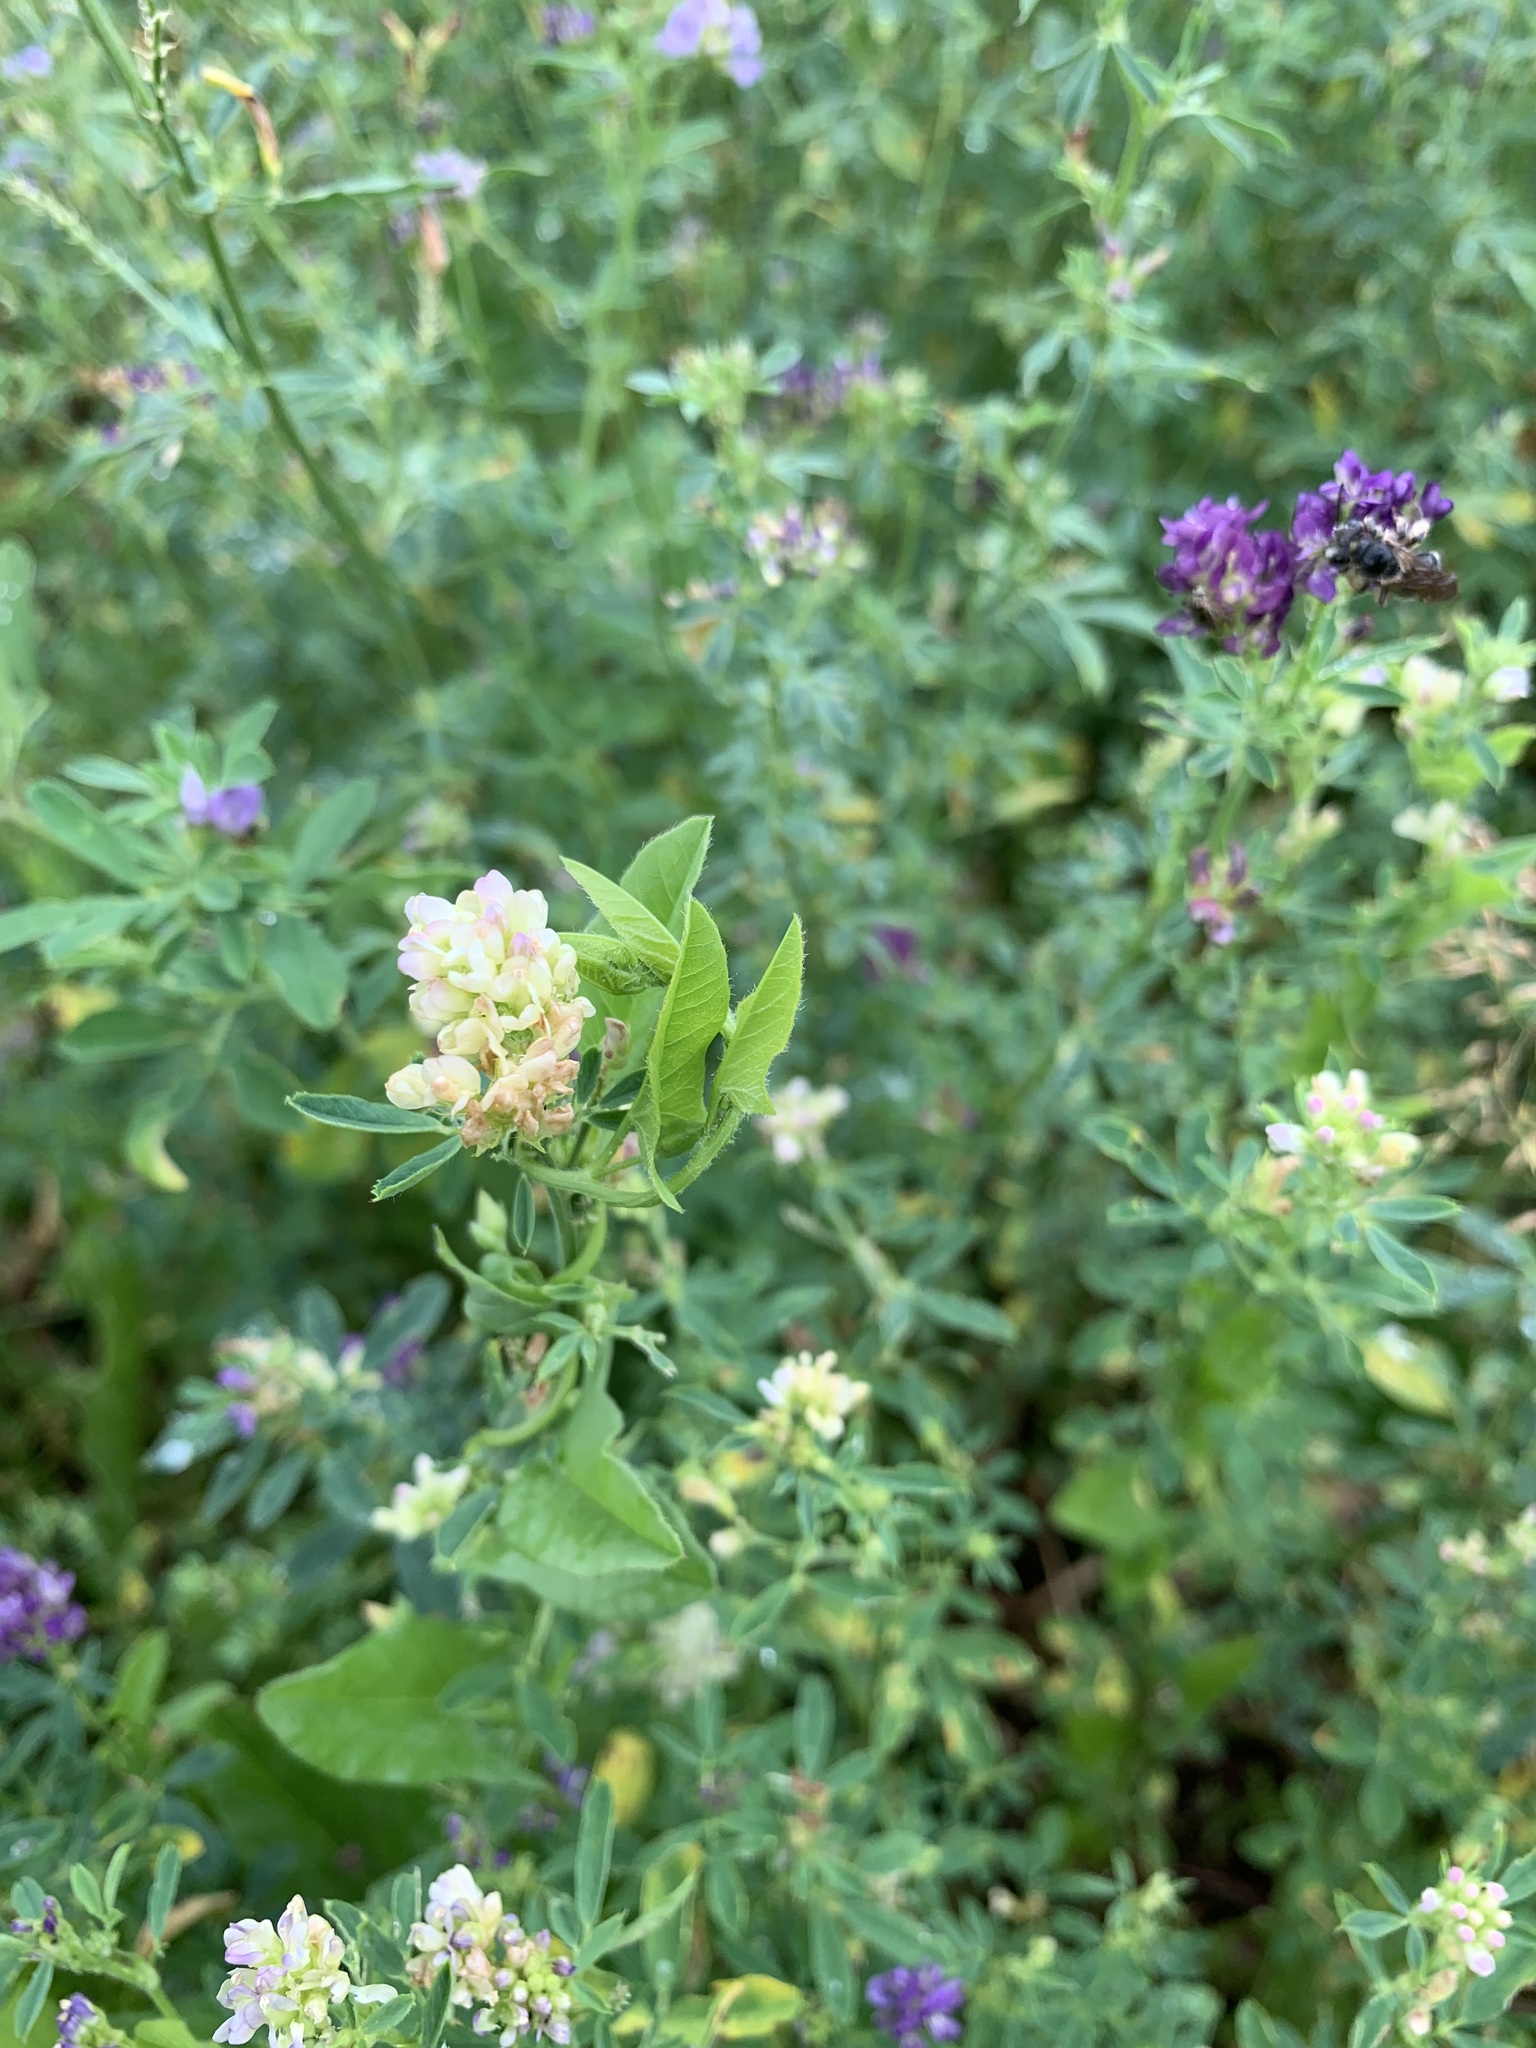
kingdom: Plantae
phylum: Tracheophyta
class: Magnoliopsida
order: Fabales
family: Fabaceae
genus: Medicago
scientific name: Medicago varia
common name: Sand lucerne
